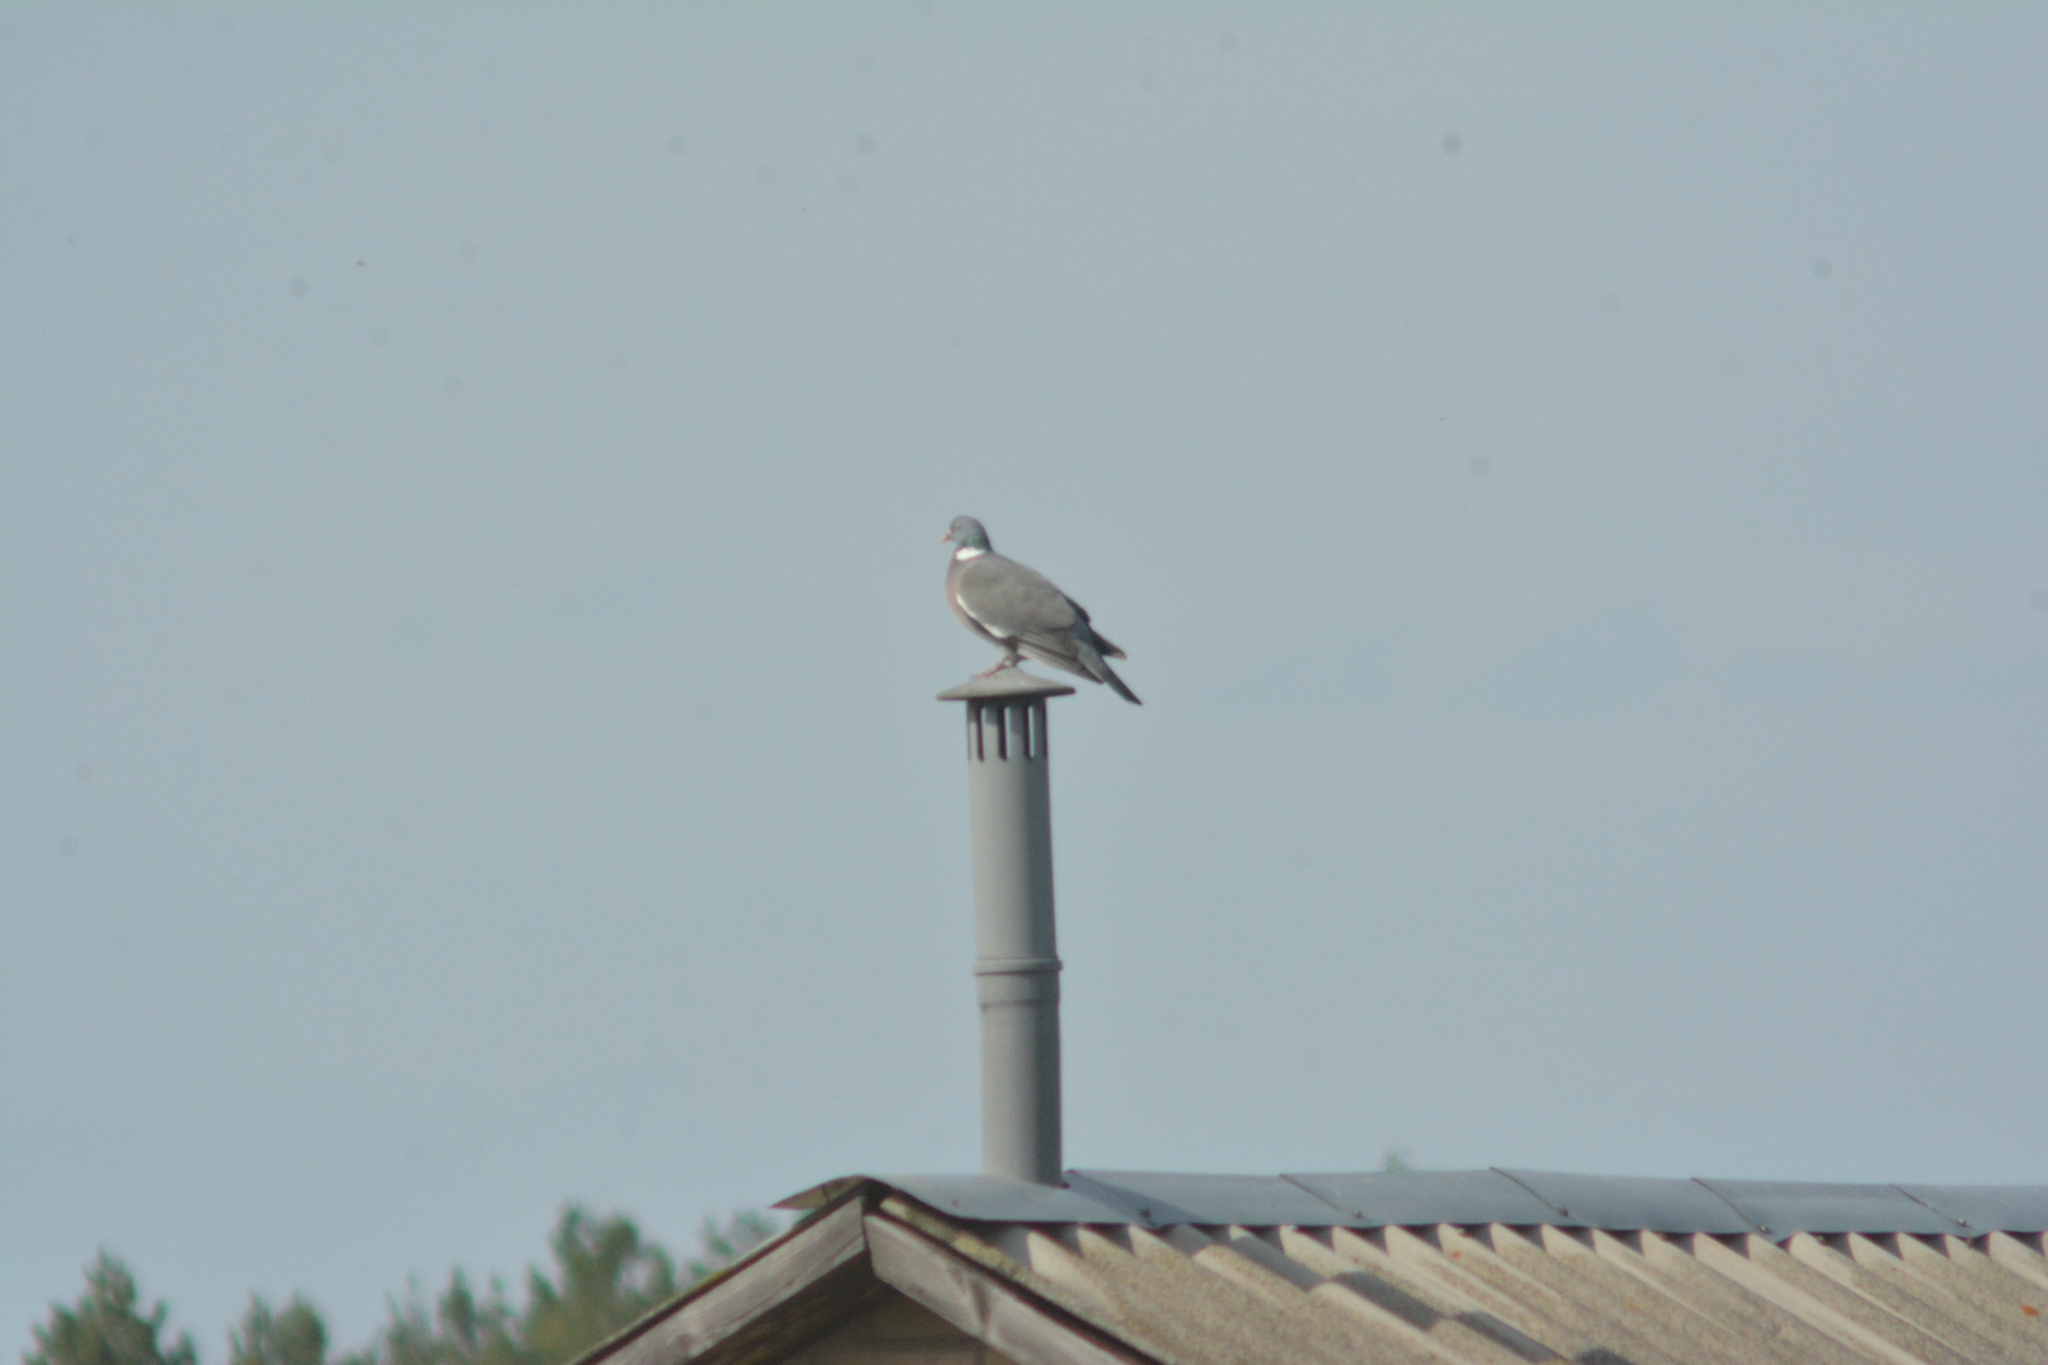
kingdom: Animalia
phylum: Chordata
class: Aves
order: Columbiformes
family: Columbidae
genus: Columba
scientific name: Columba palumbus
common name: Common wood pigeon
